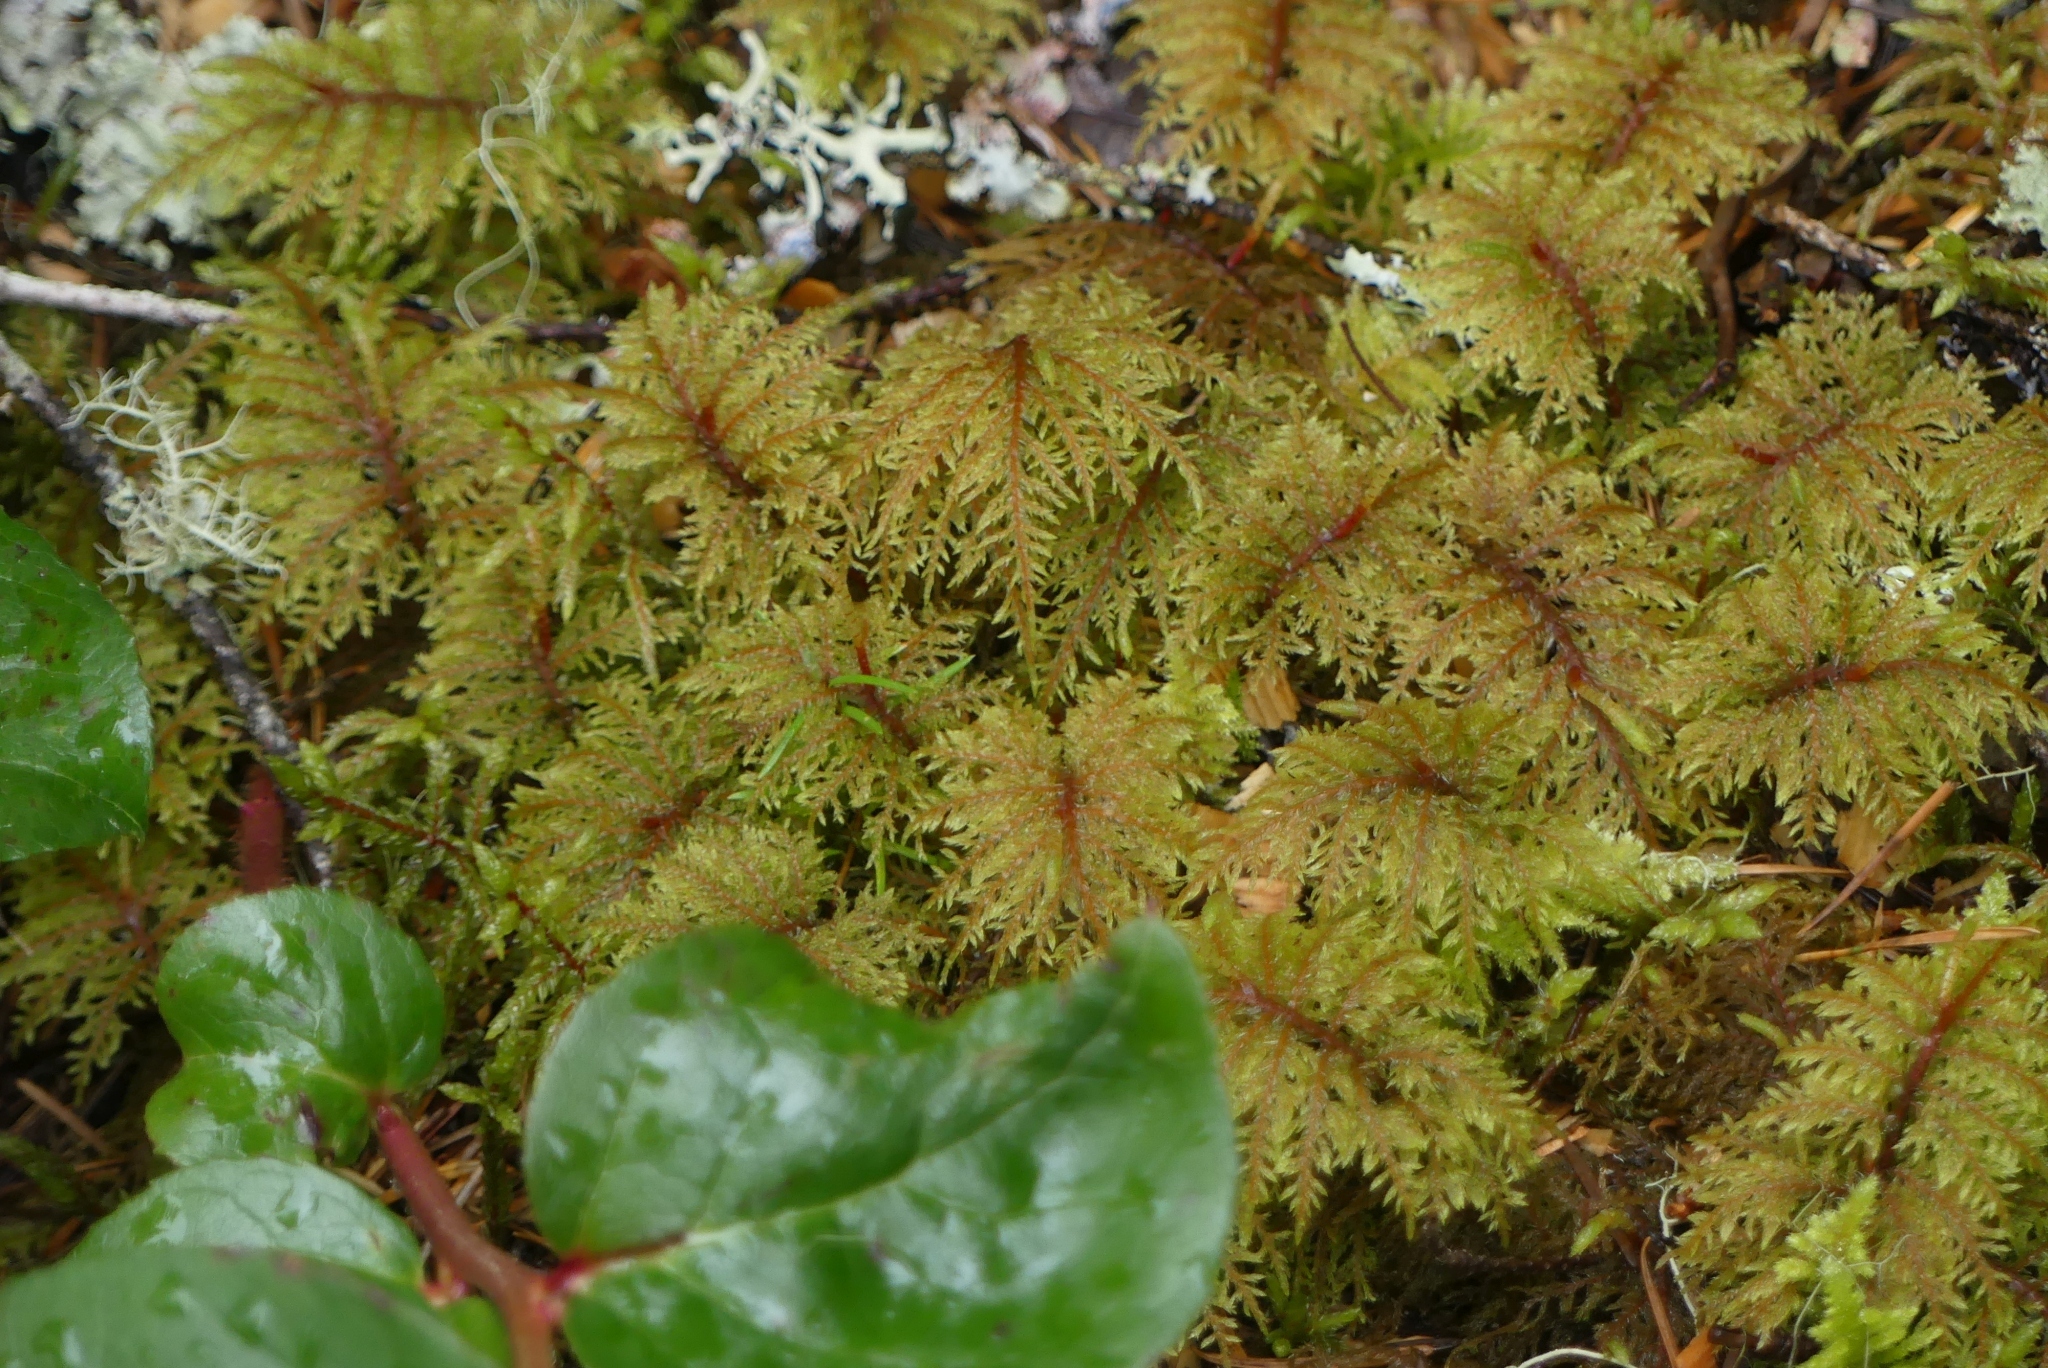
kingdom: Plantae
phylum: Bryophyta
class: Bryopsida
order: Hypnales
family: Hylocomiaceae
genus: Hylocomium
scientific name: Hylocomium splendens
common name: Stairstep moss
